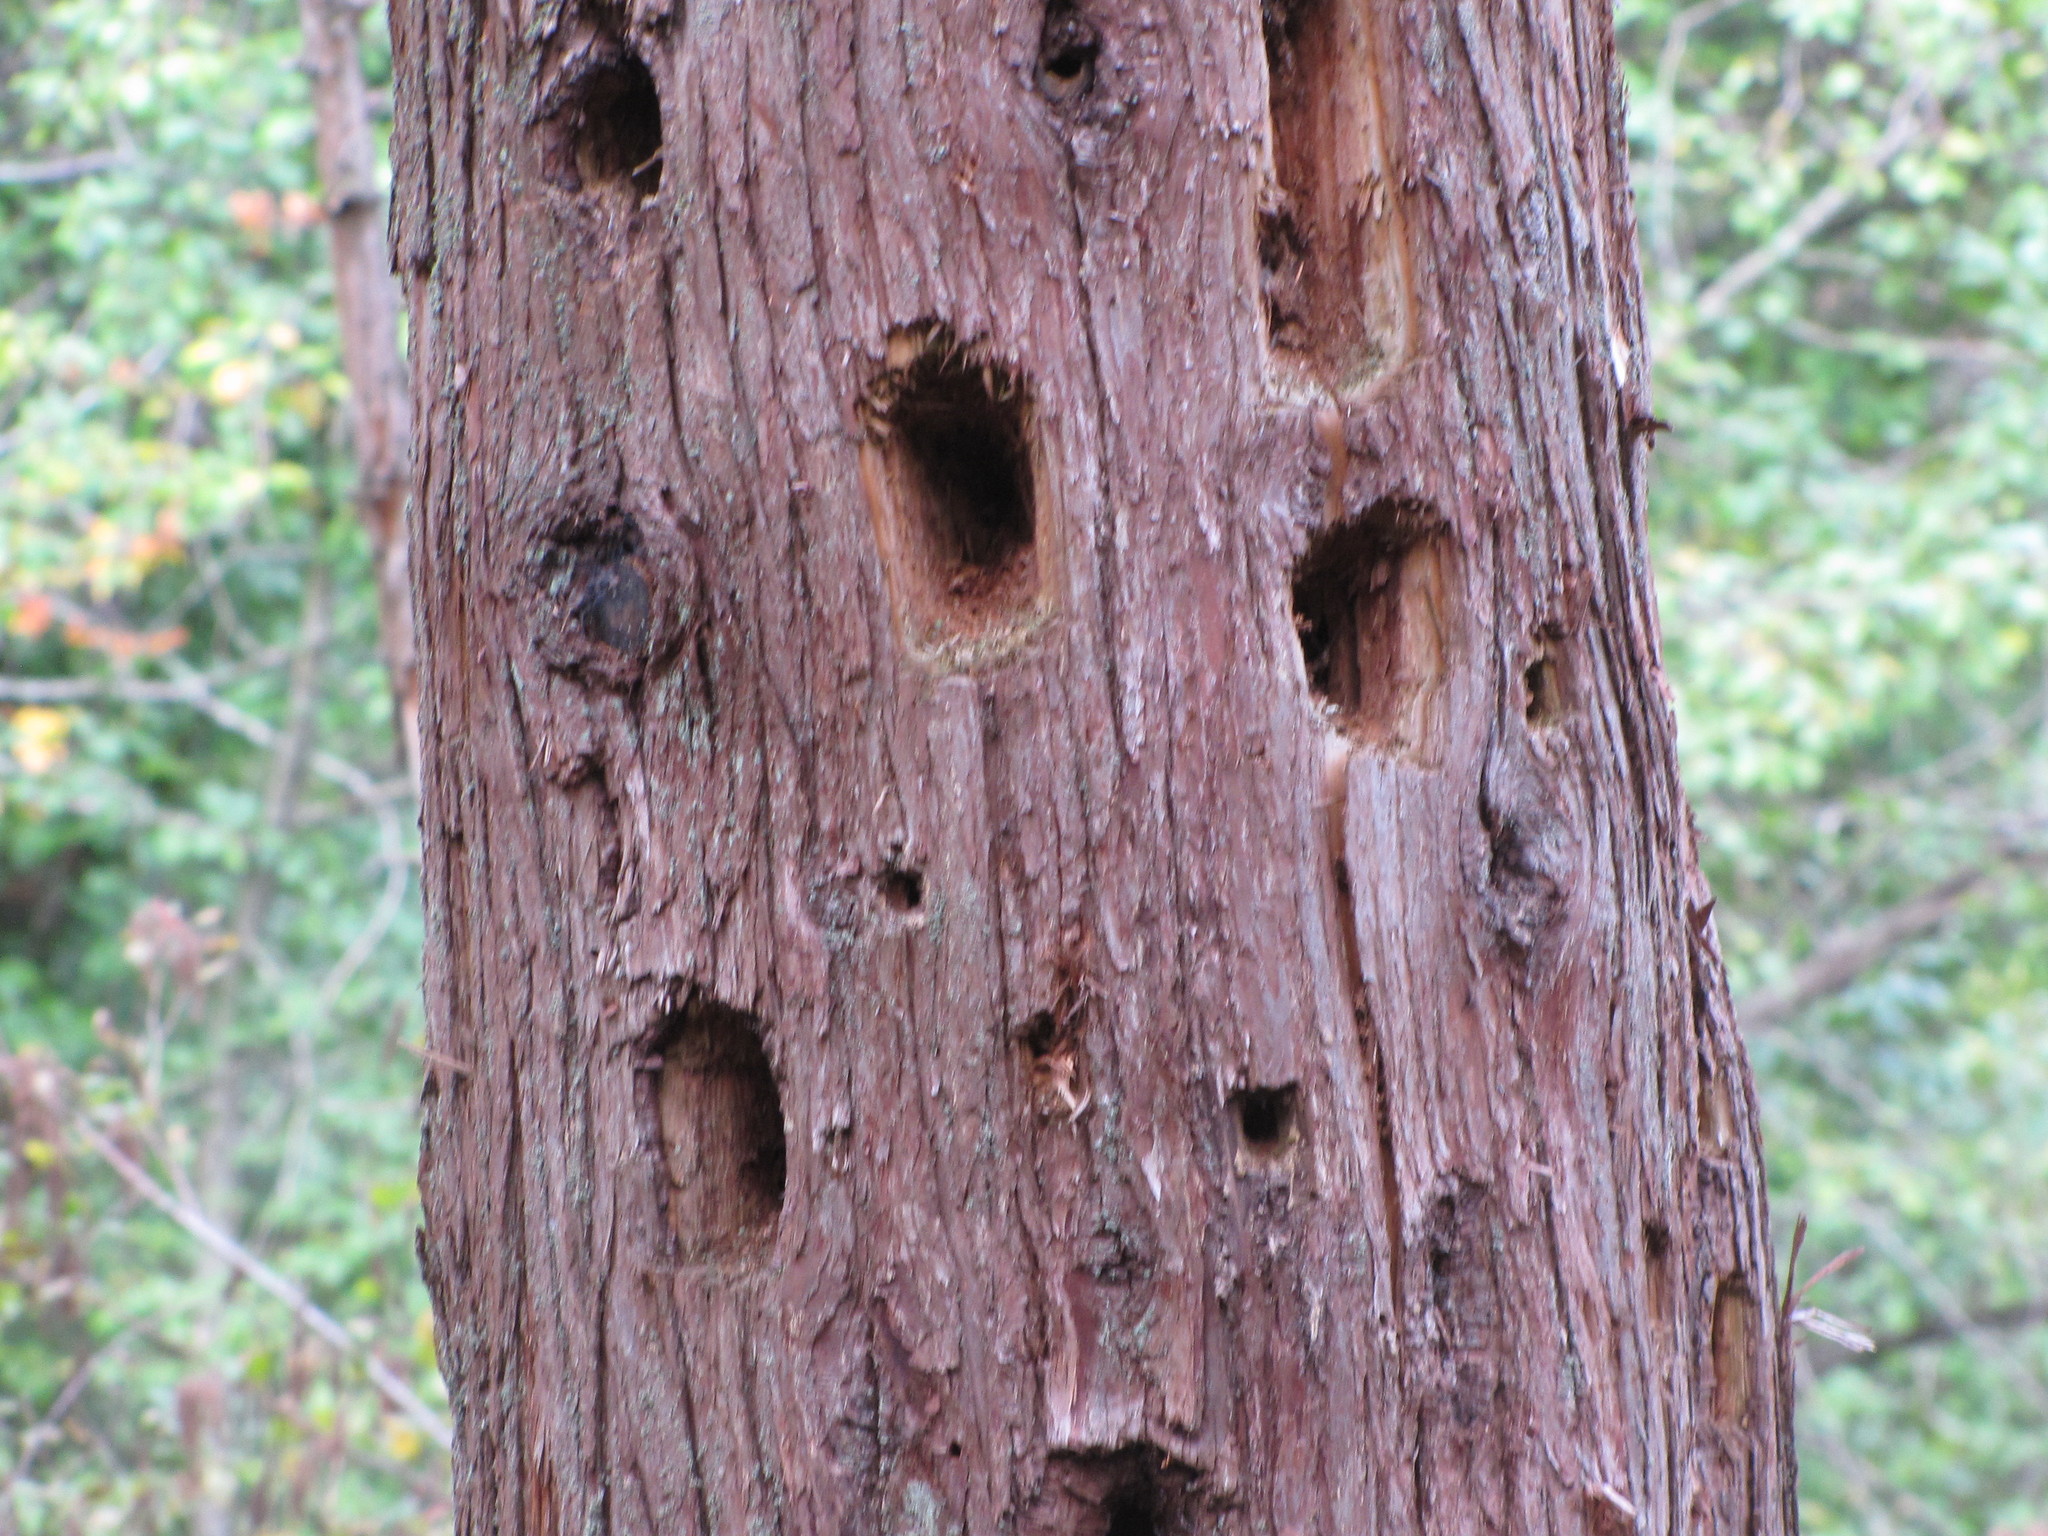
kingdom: Animalia
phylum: Chordata
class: Aves
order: Piciformes
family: Picidae
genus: Dryocopus
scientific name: Dryocopus pileatus
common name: Pileated woodpecker
